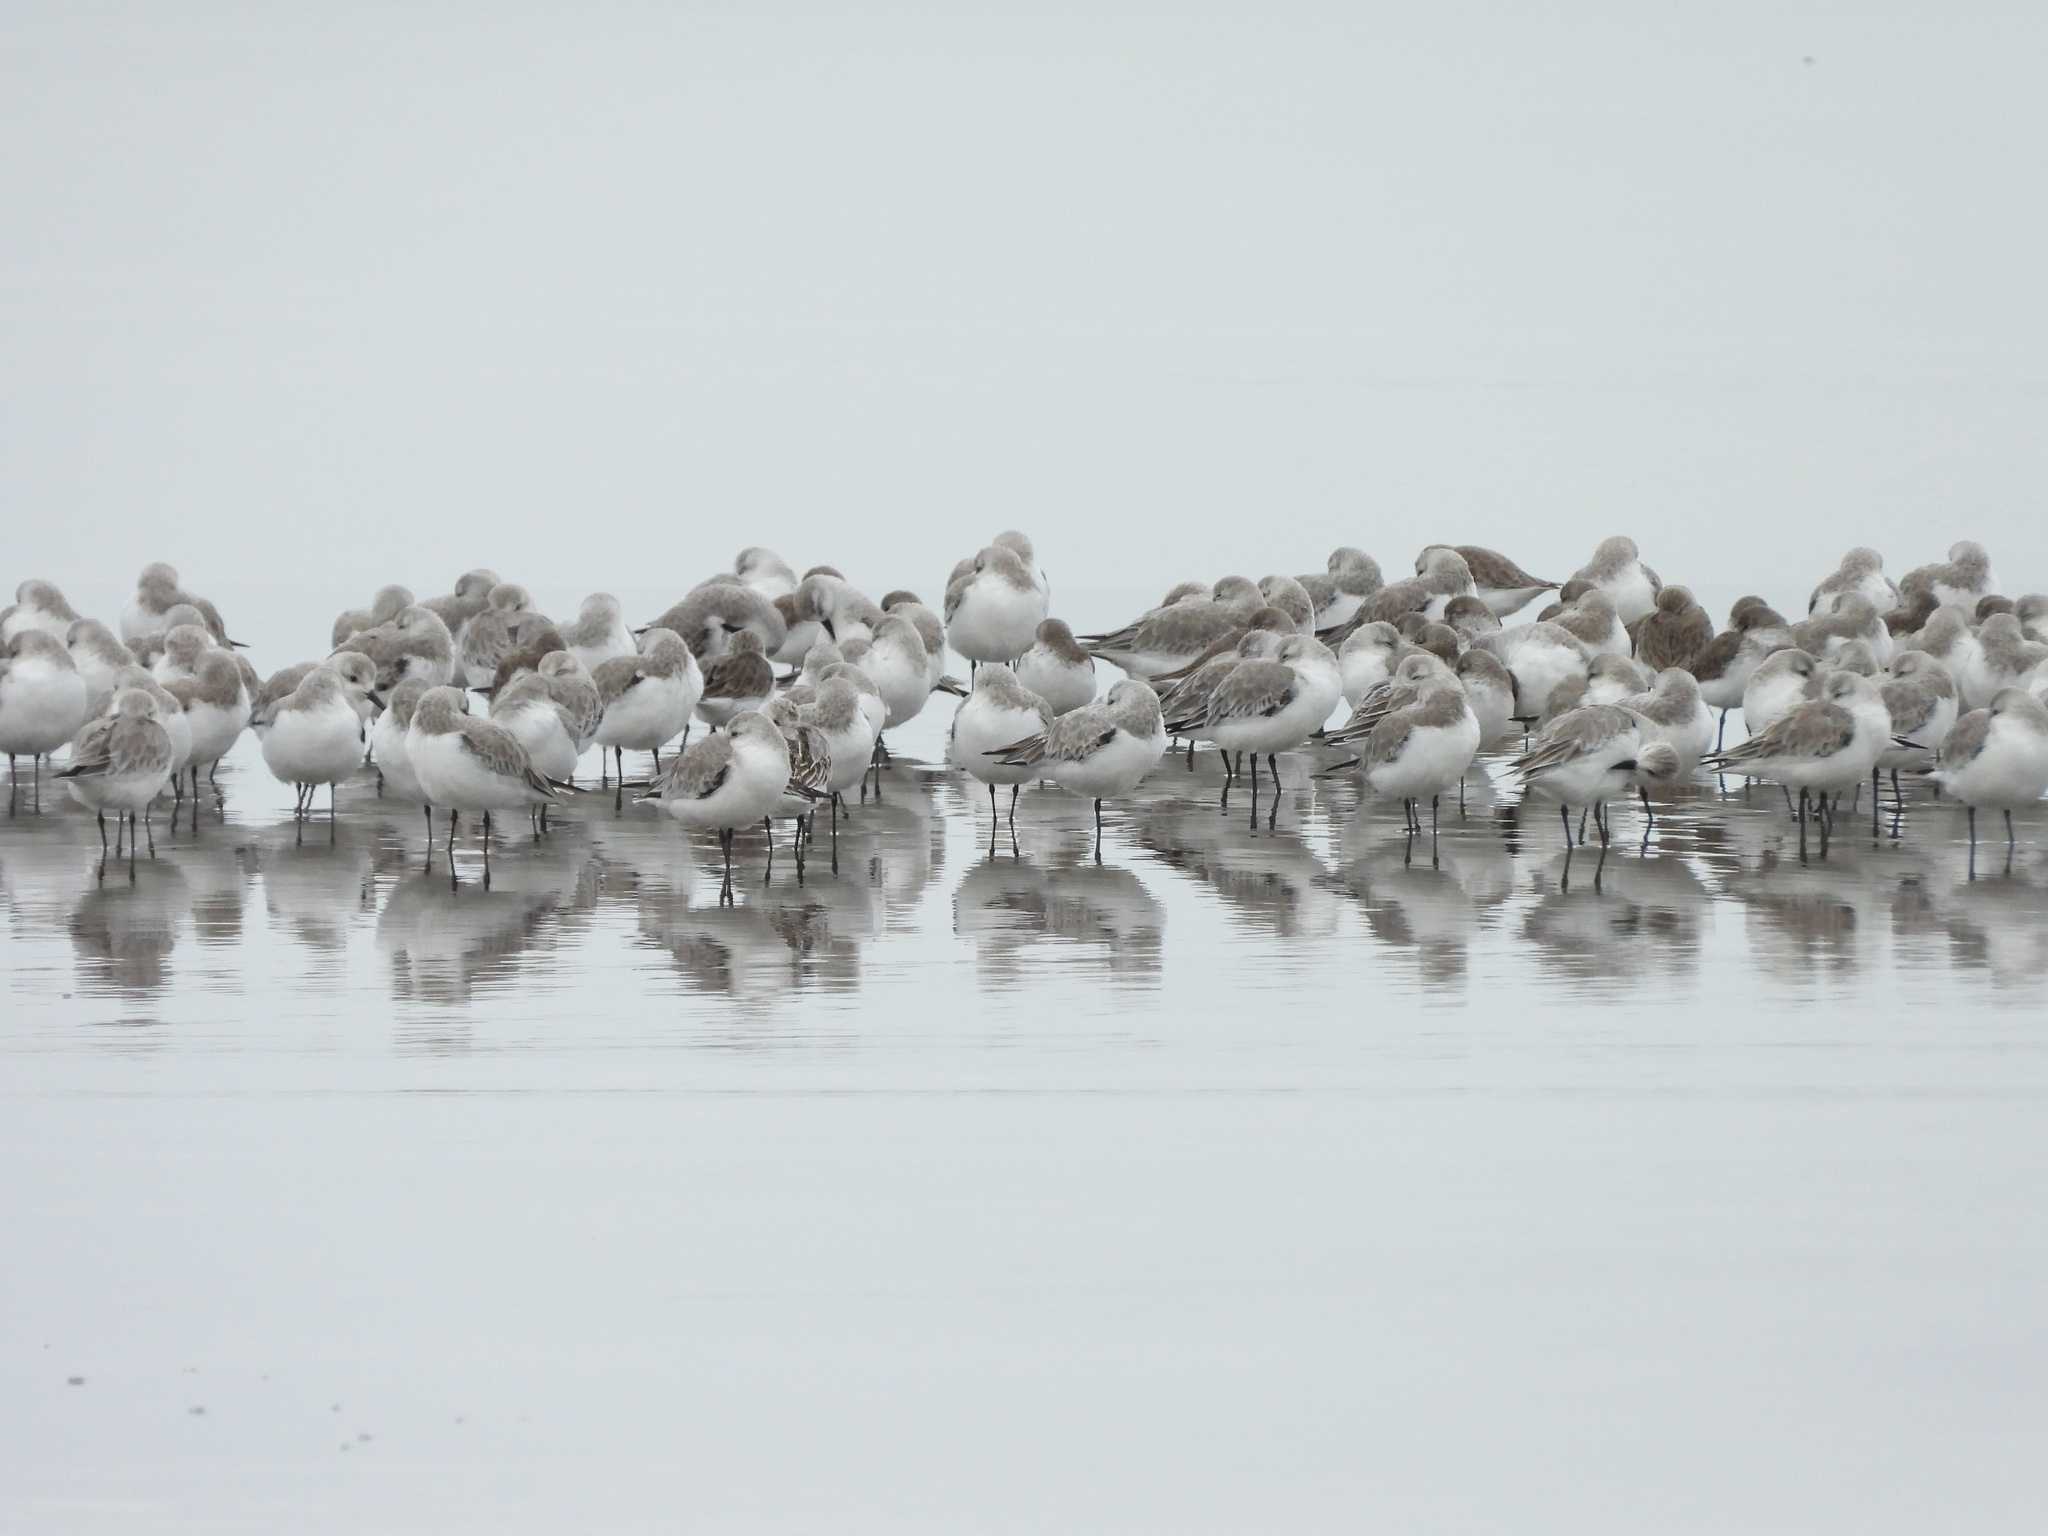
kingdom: Animalia
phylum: Chordata
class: Aves
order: Charadriiformes
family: Scolopacidae
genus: Calidris
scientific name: Calidris alba
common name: Sanderling
